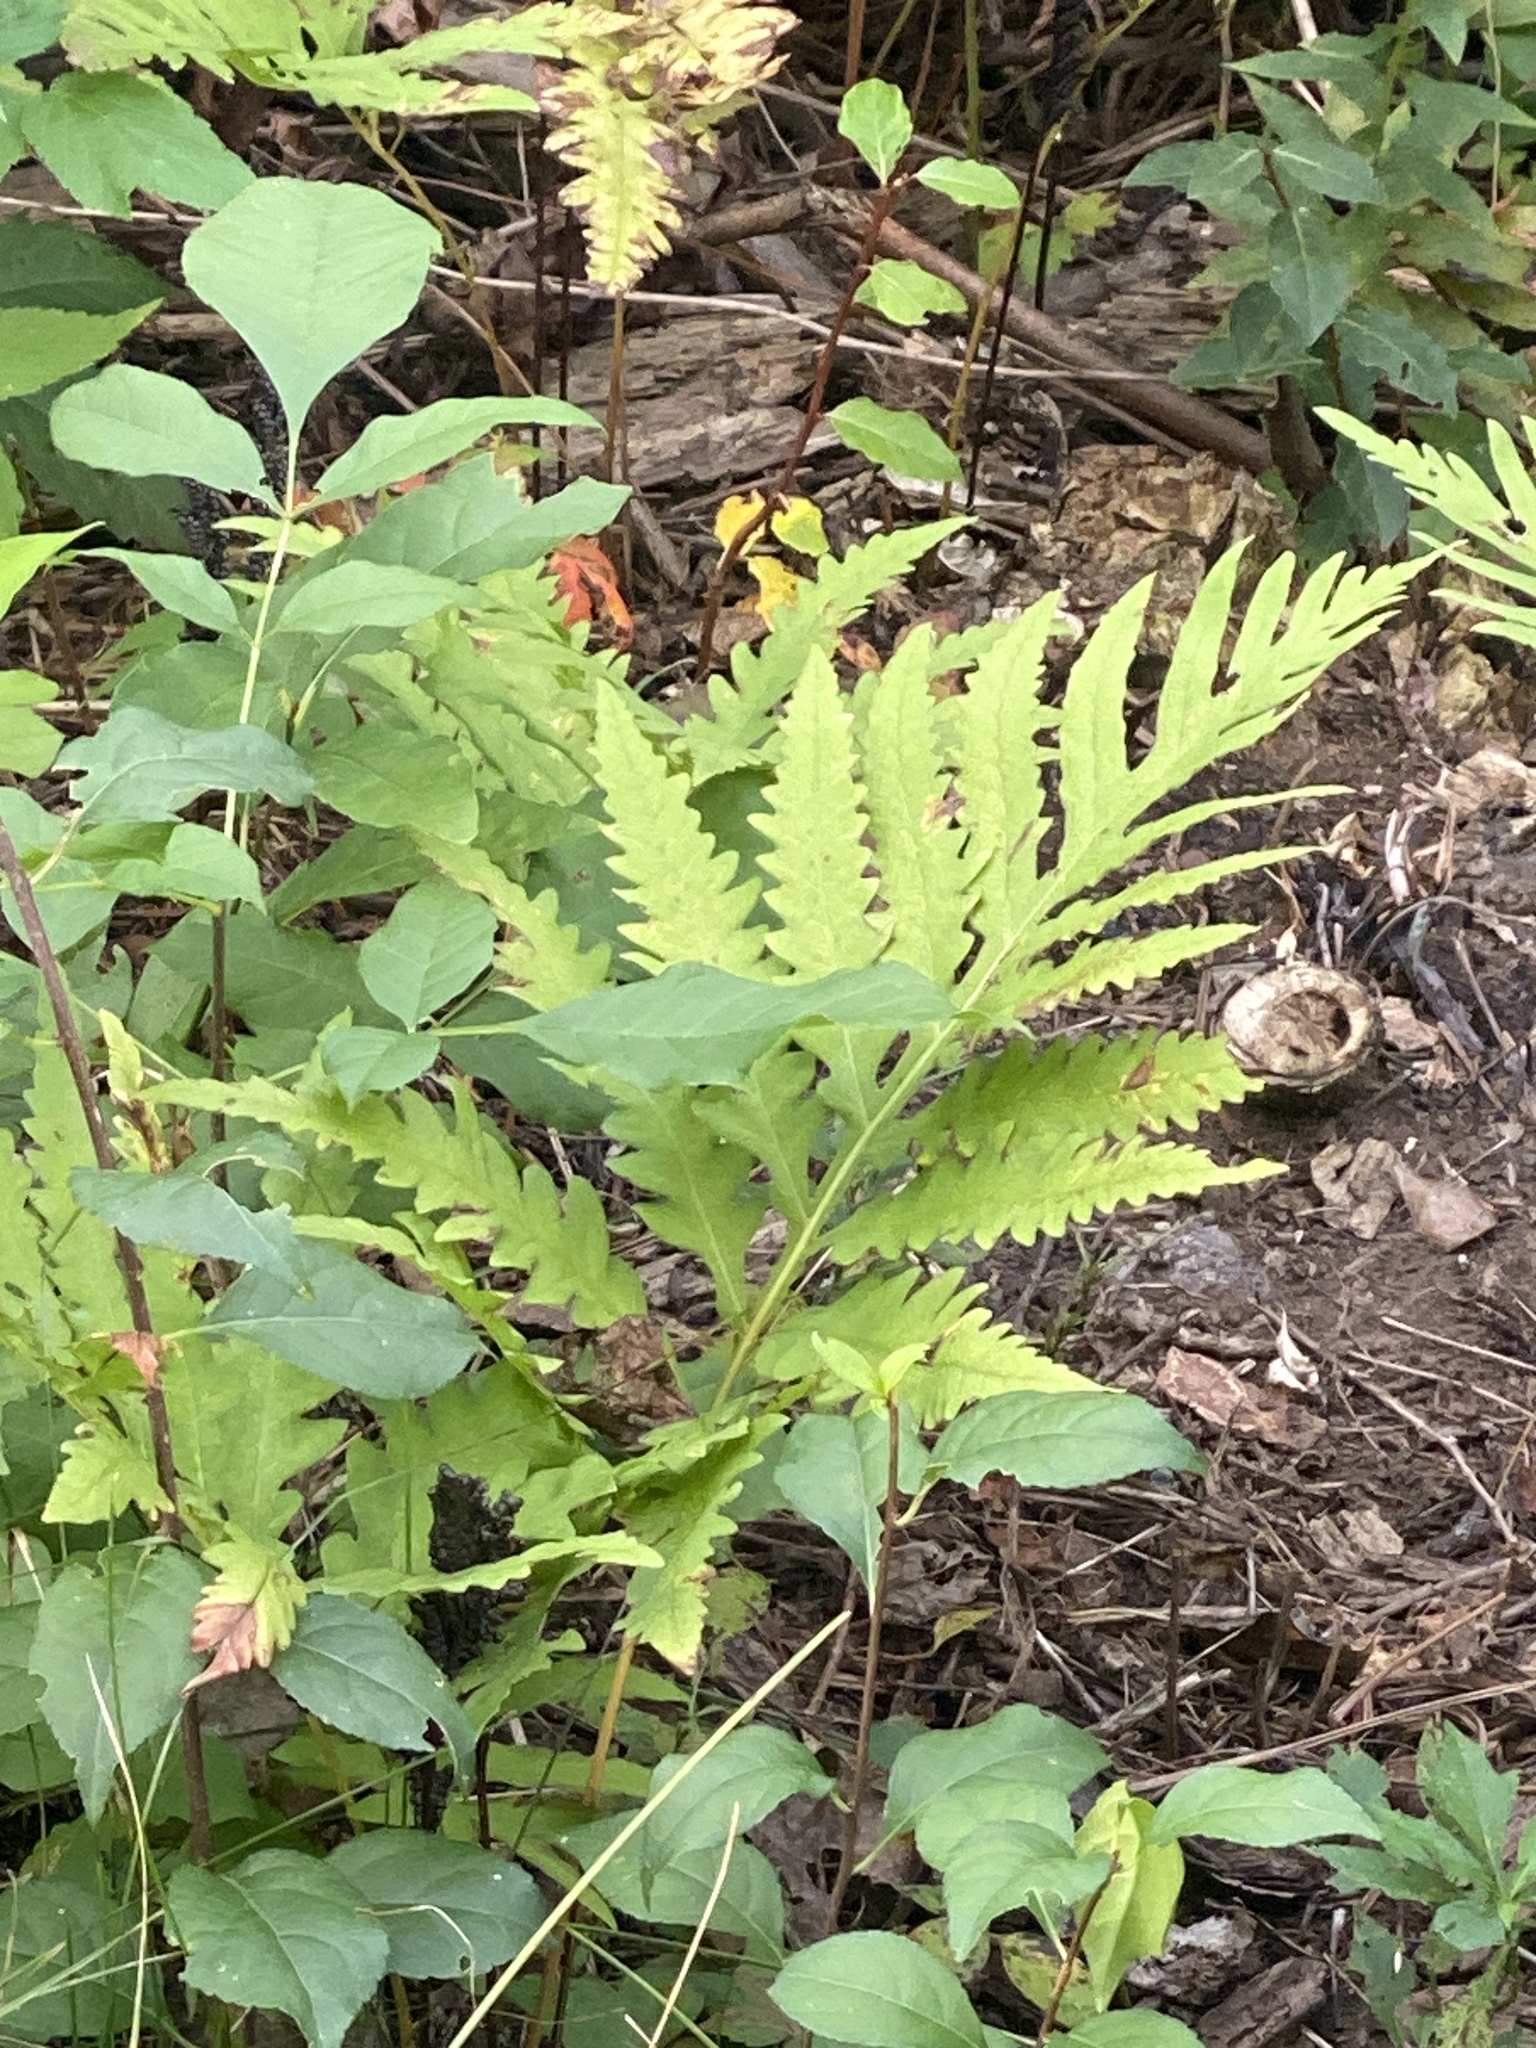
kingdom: Plantae
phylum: Tracheophyta
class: Polypodiopsida
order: Polypodiales
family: Onocleaceae
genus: Onoclea
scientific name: Onoclea sensibilis
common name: Sensitive fern
